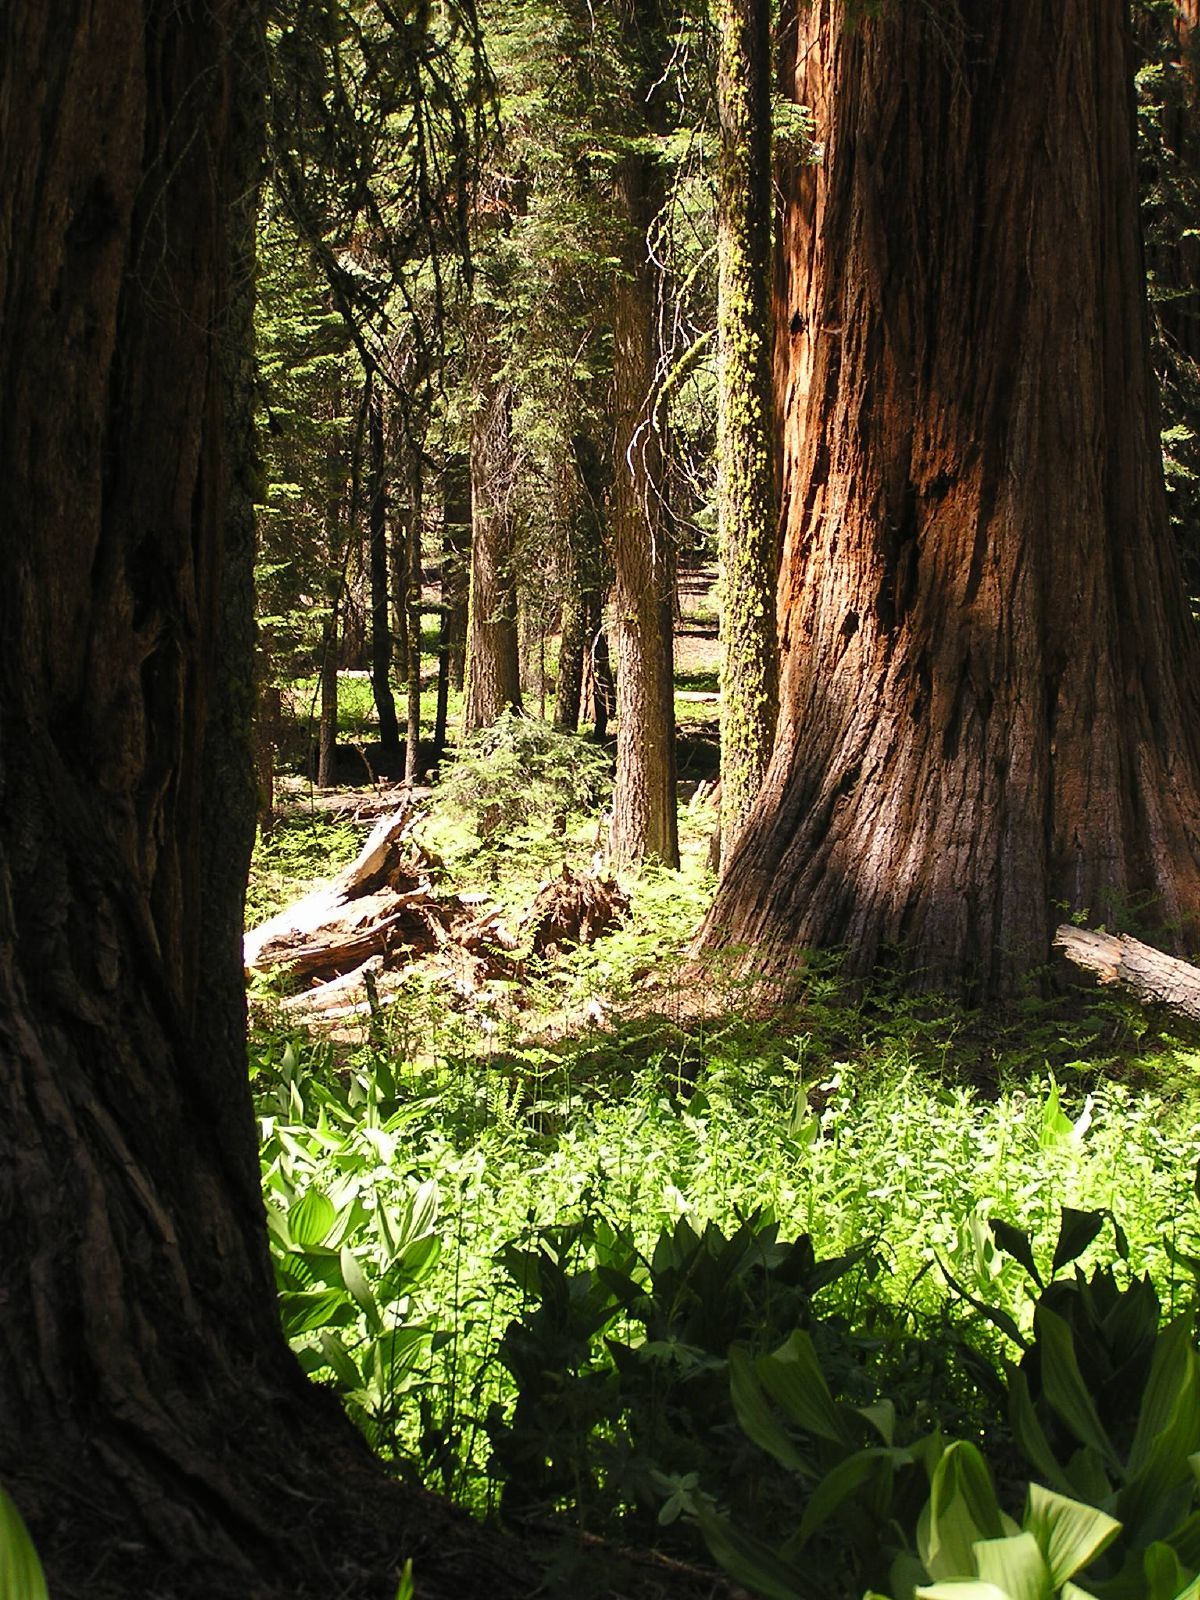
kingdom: Plantae
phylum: Tracheophyta
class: Pinopsida
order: Pinales
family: Cupressaceae
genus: Sequoiadendron
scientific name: Sequoiadendron giganteum
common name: Wellingtonia
